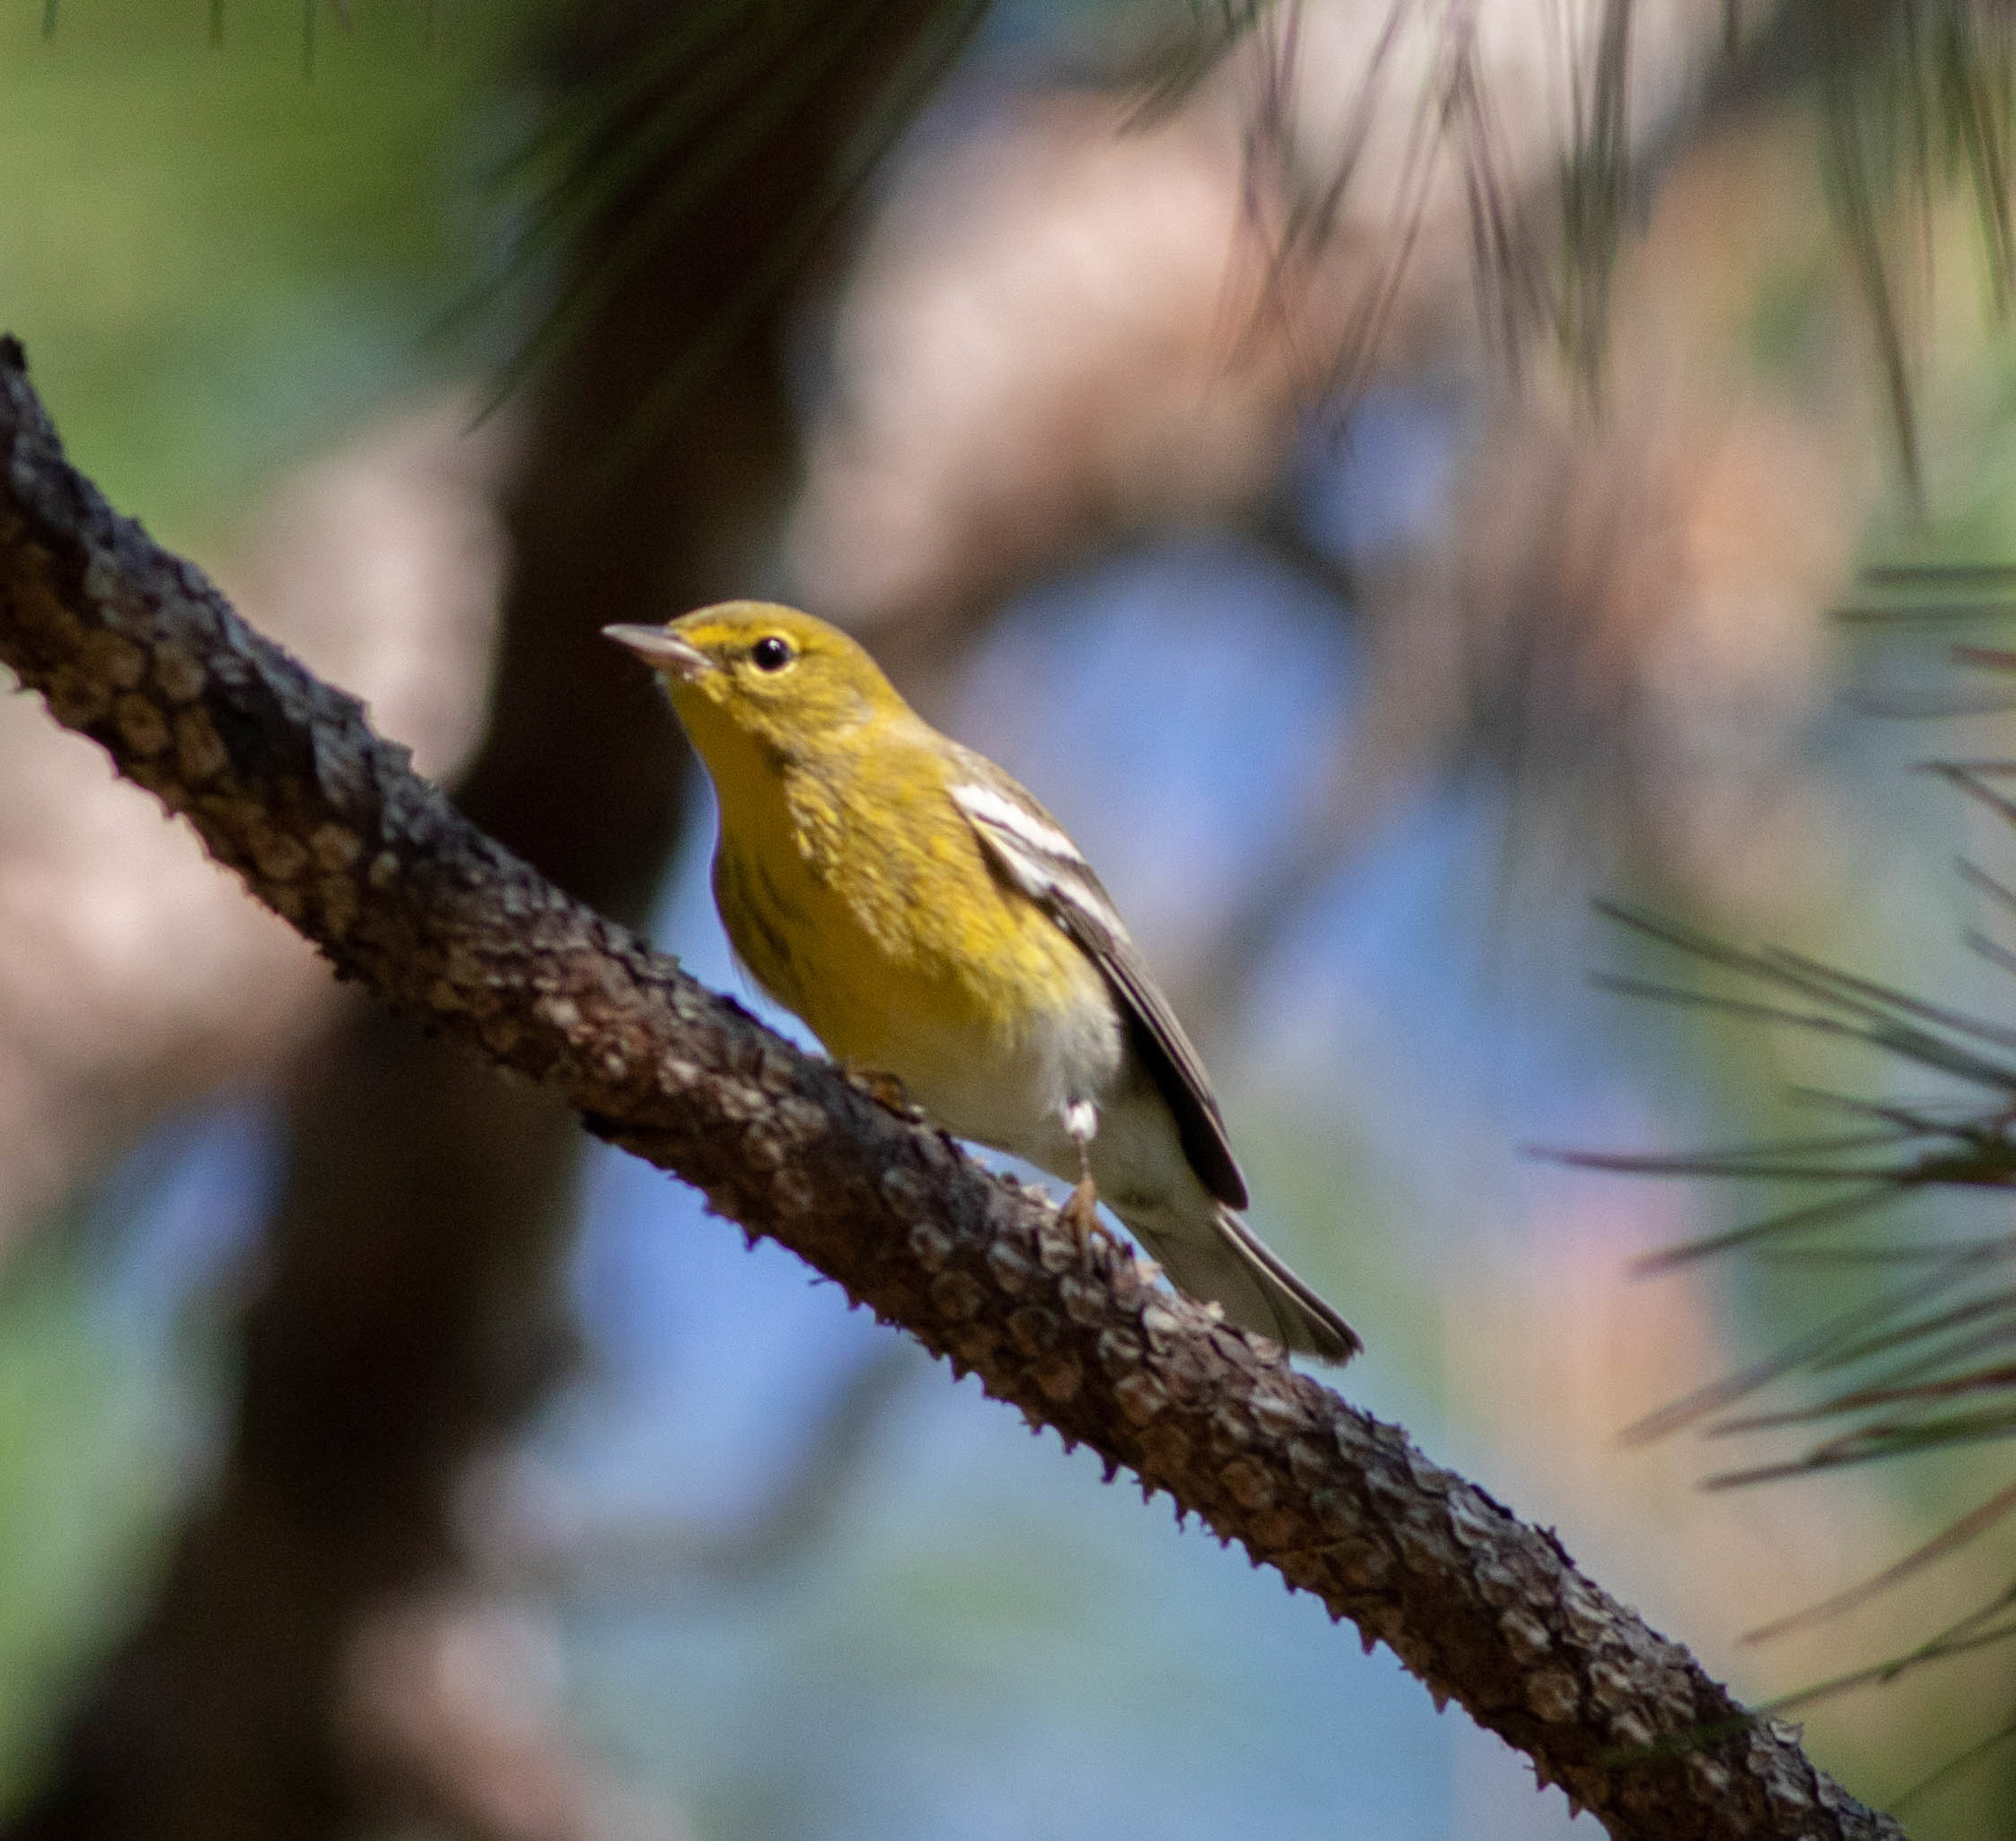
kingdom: Animalia
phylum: Chordata
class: Aves
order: Passeriformes
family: Parulidae
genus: Setophaga
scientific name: Setophaga pinus
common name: Pine warbler
